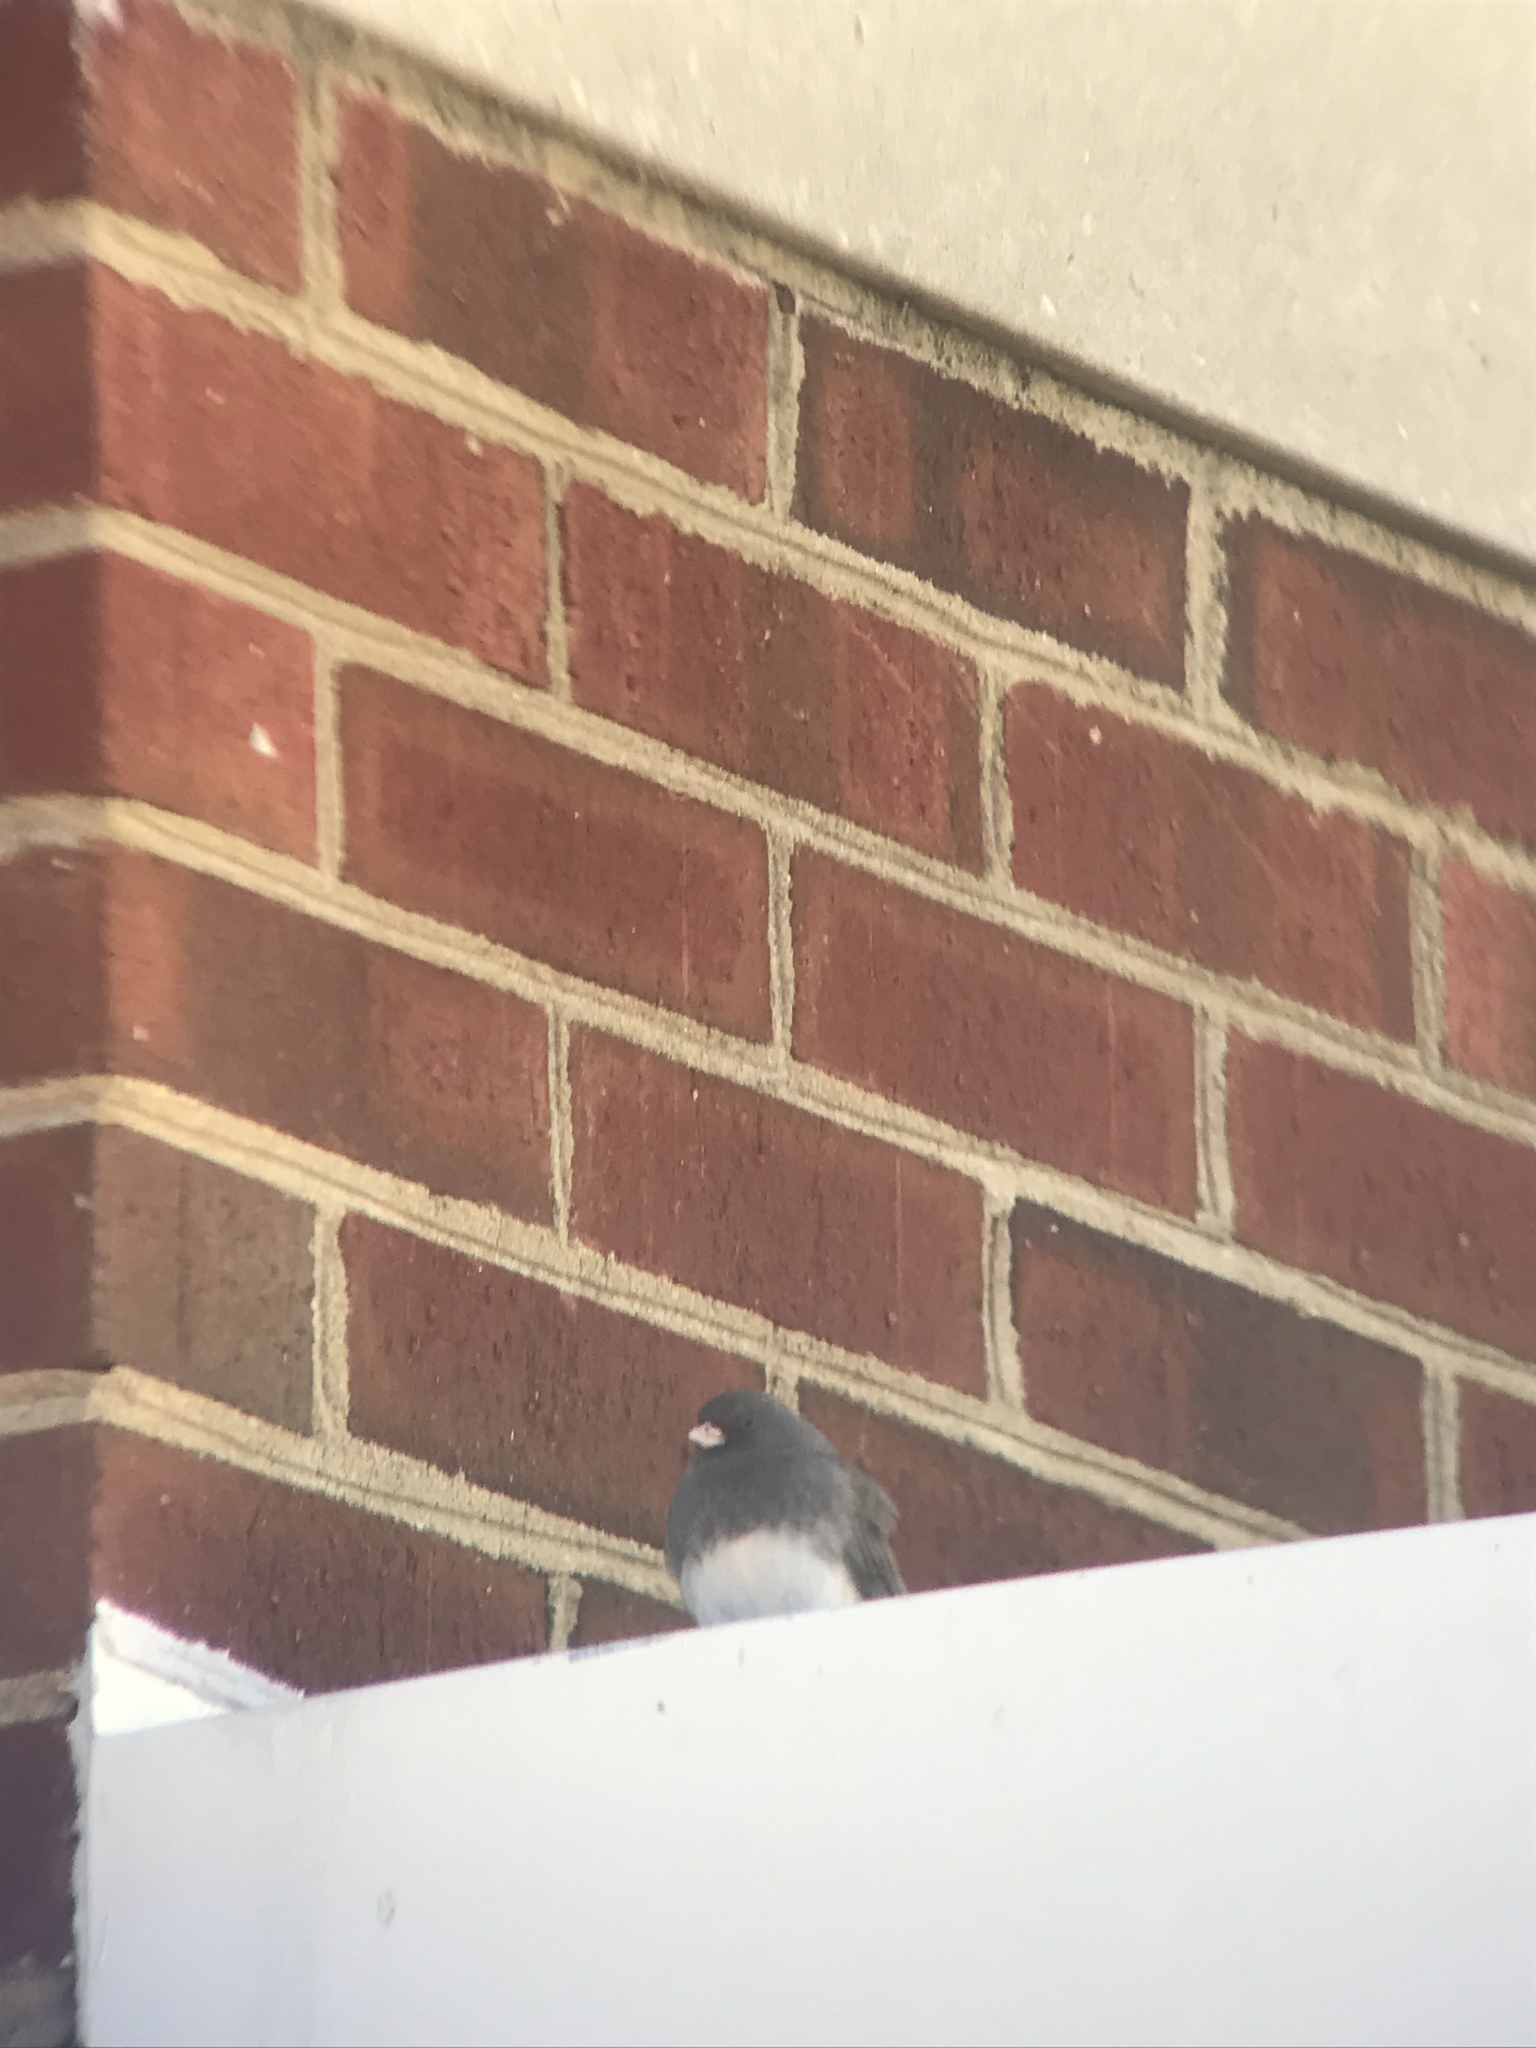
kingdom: Animalia
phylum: Chordata
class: Aves
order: Passeriformes
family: Passerellidae
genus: Junco
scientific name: Junco hyemalis
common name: Dark-eyed junco
